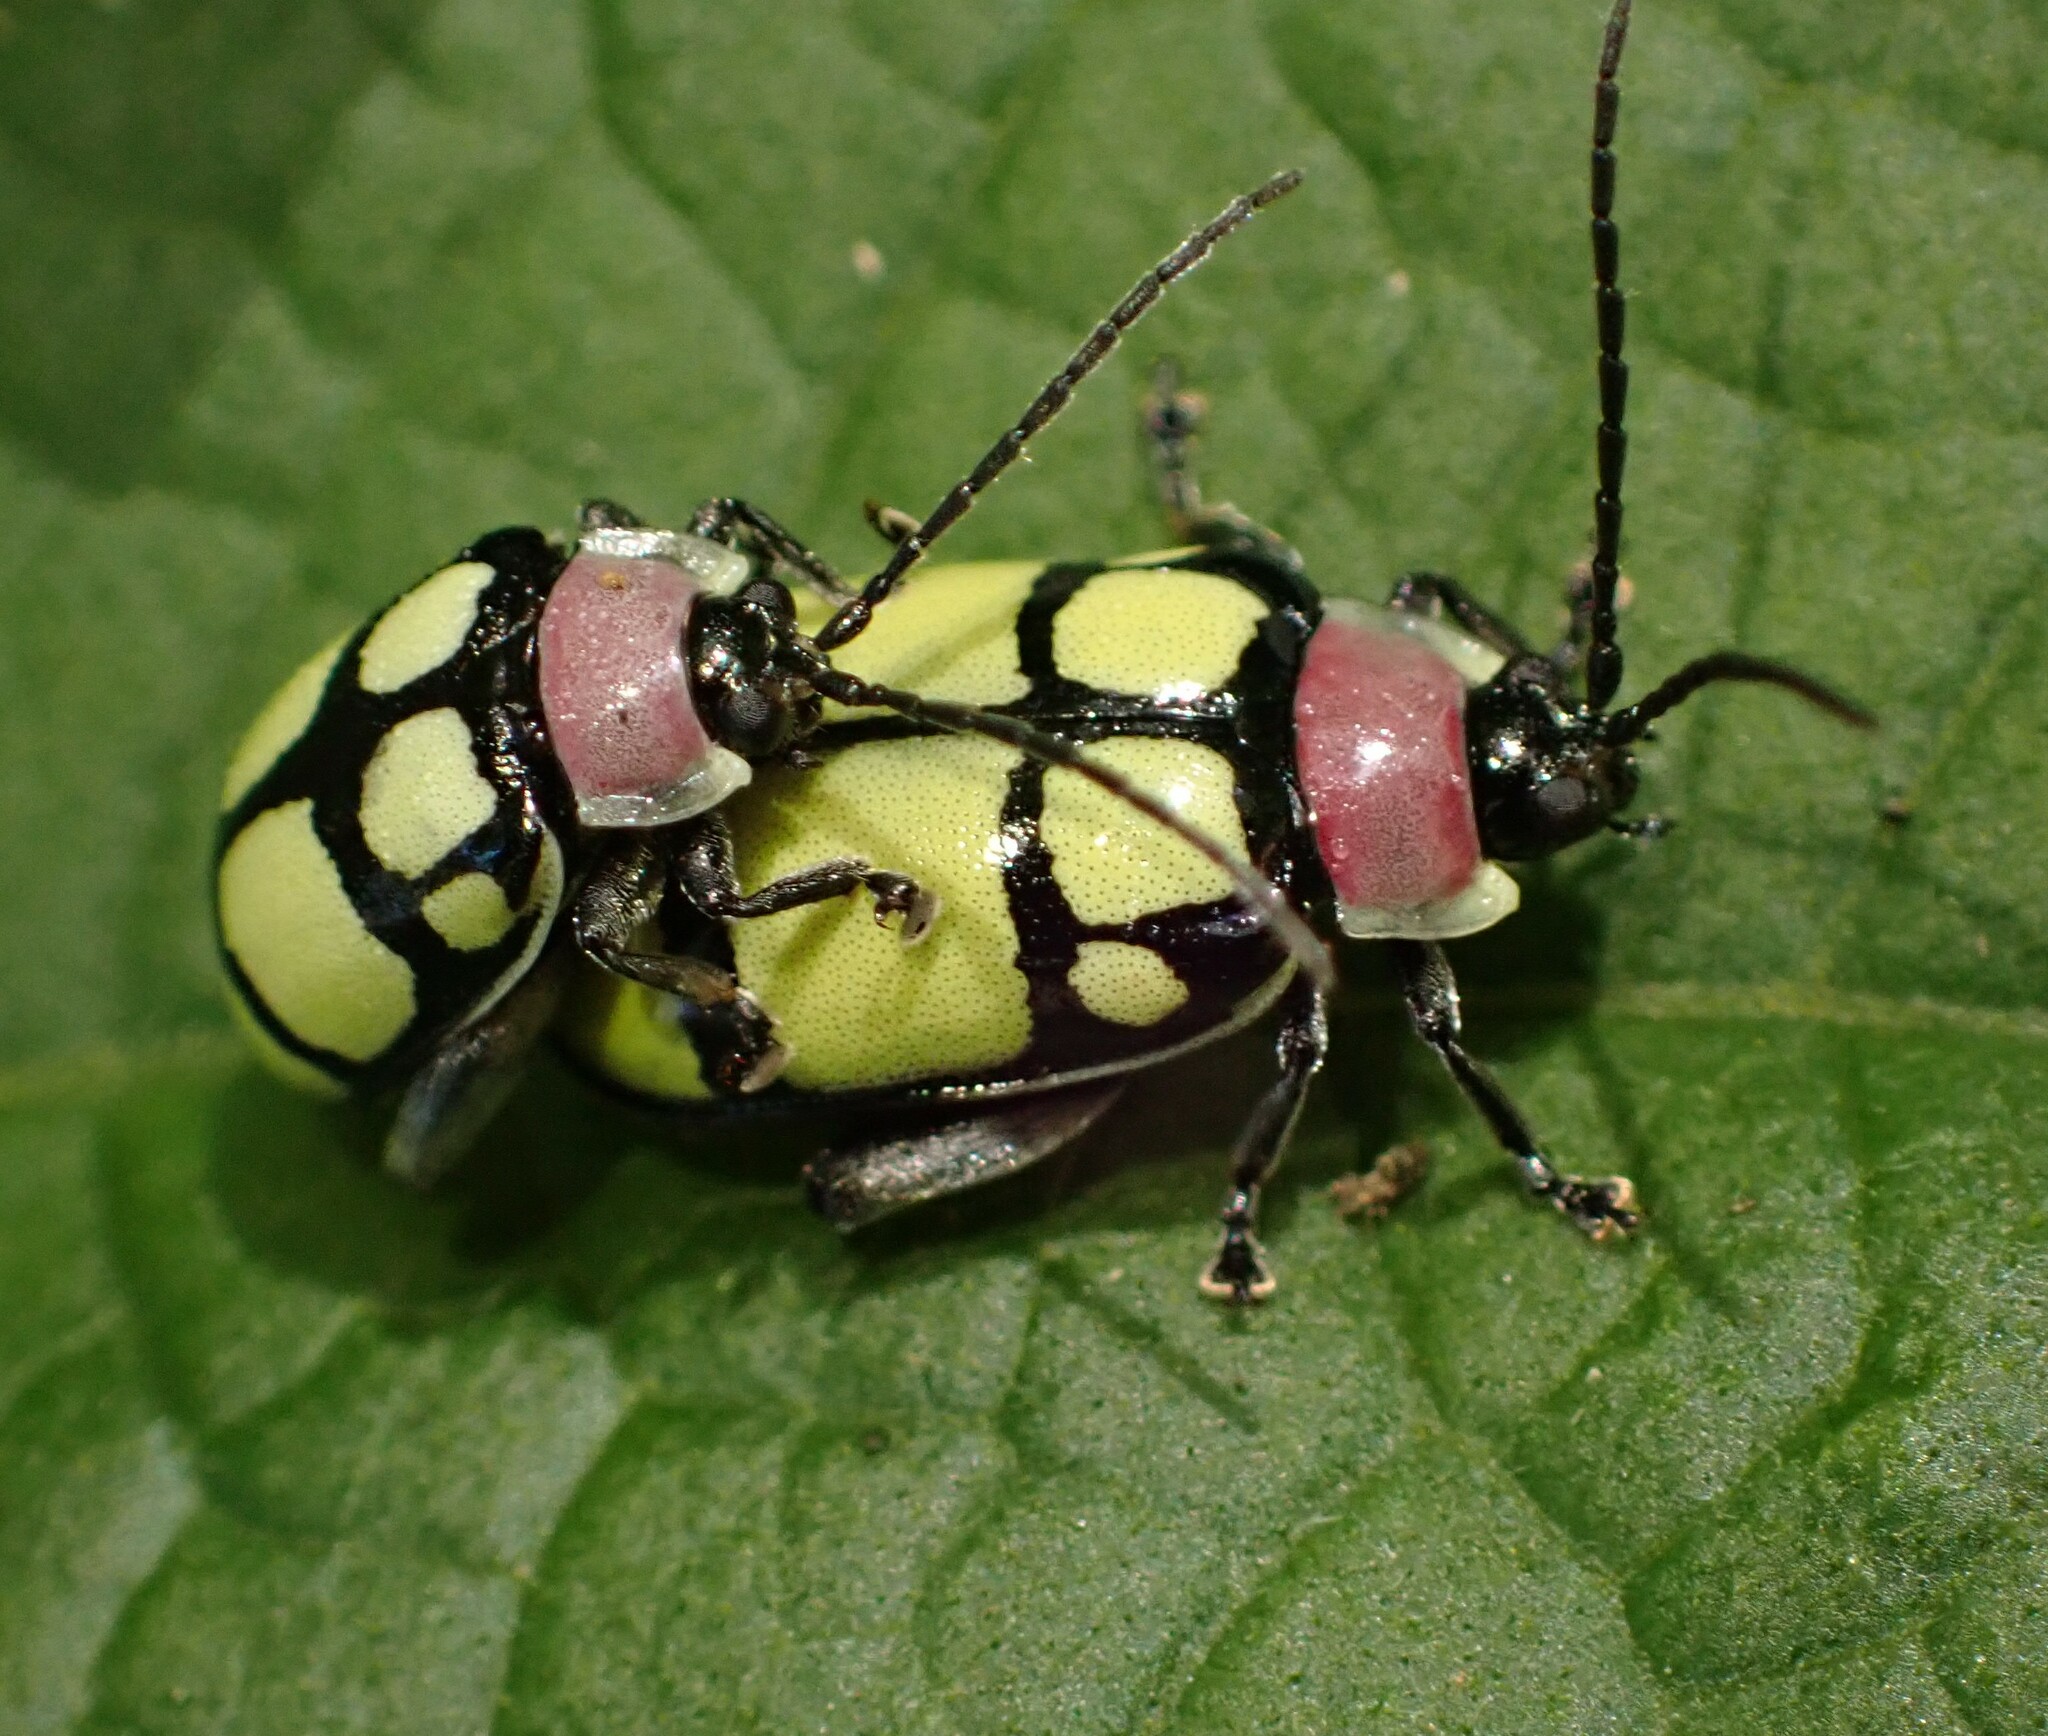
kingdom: Animalia
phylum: Arthropoda
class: Insecta
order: Coleoptera
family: Chrysomelidae
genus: Alagoasa
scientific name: Alagoasa
